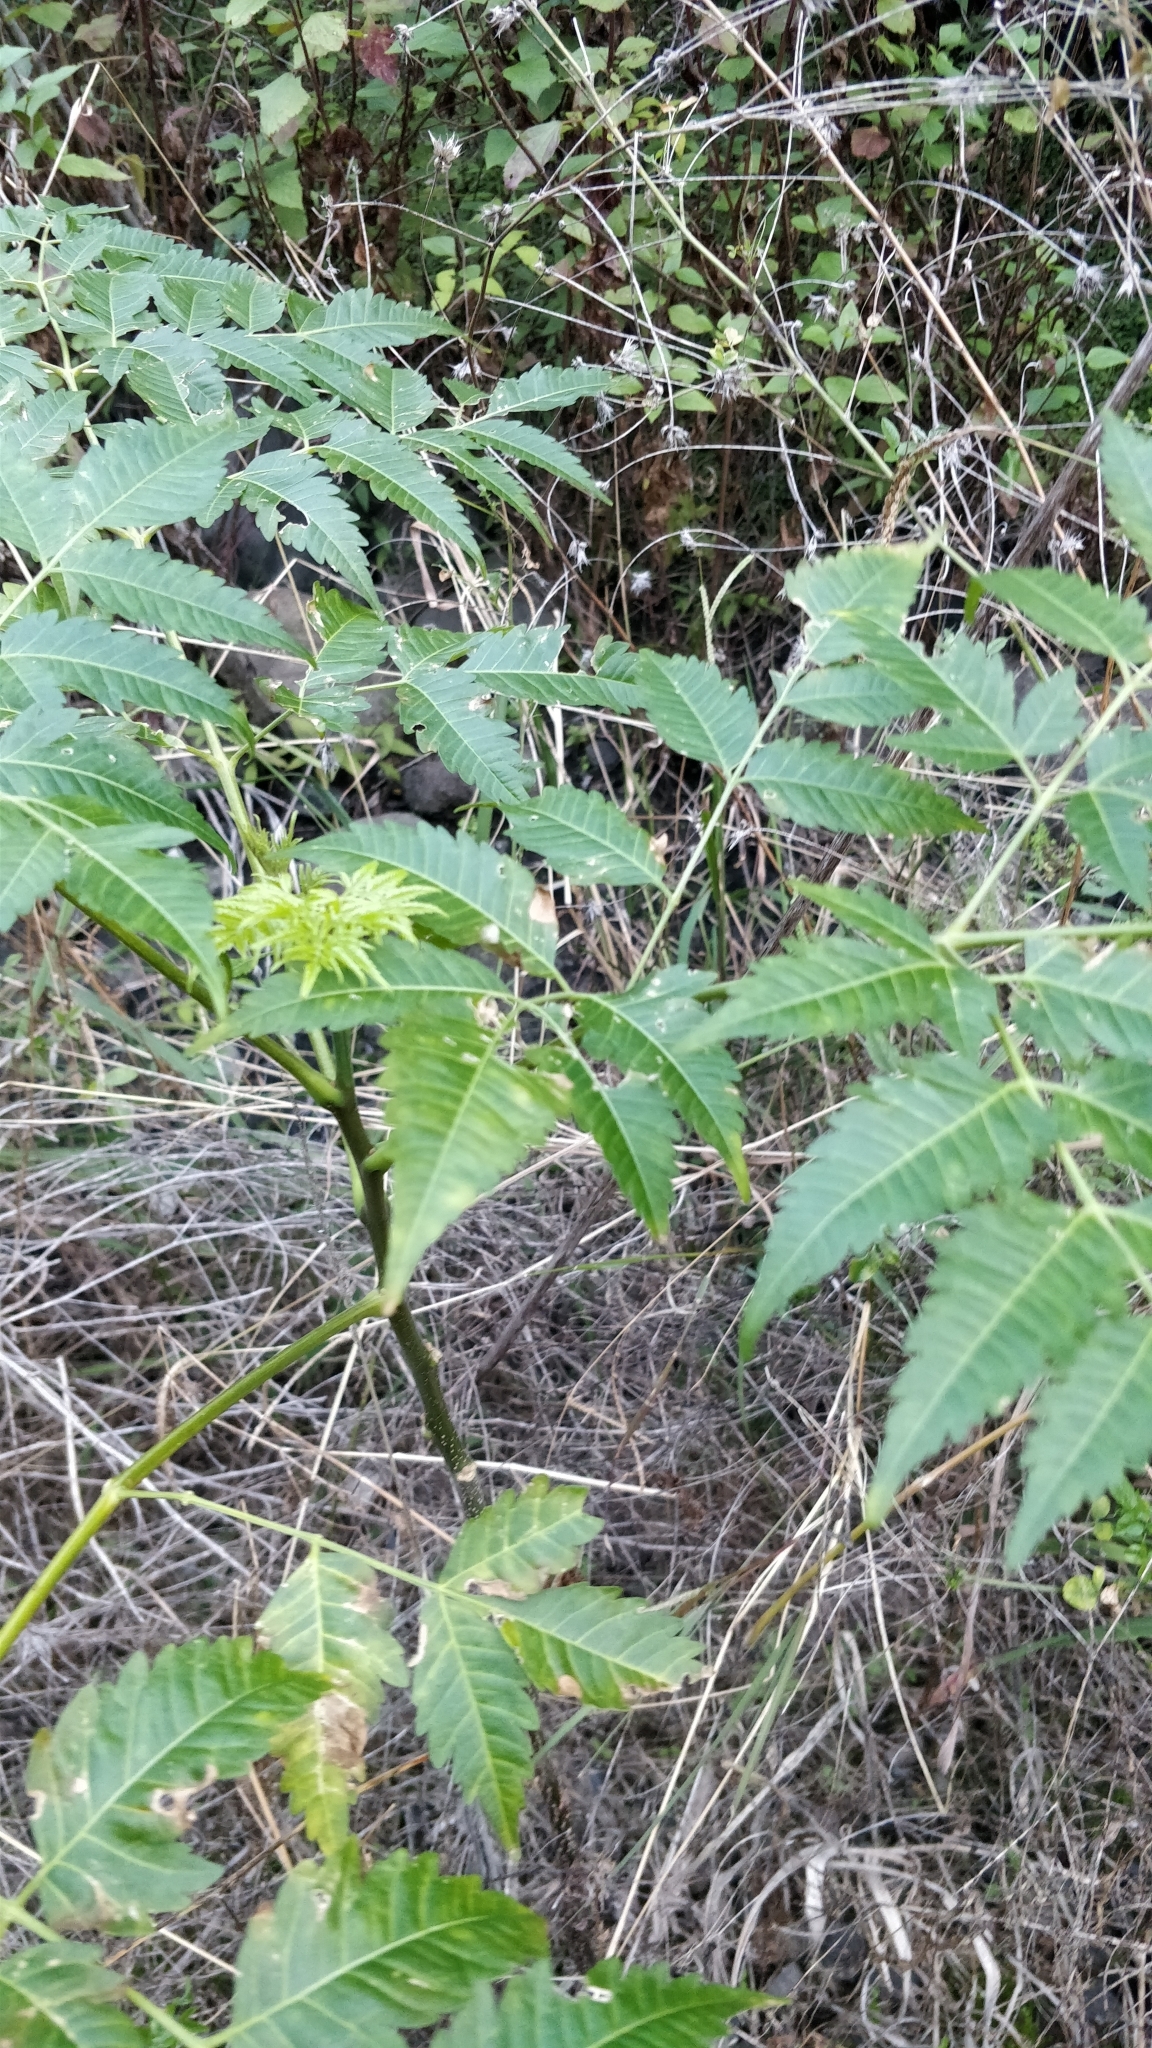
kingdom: Plantae
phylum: Tracheophyta
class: Magnoliopsida
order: Sapindales
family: Meliaceae
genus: Melia
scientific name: Melia azedarach
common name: Chinaberrytree
